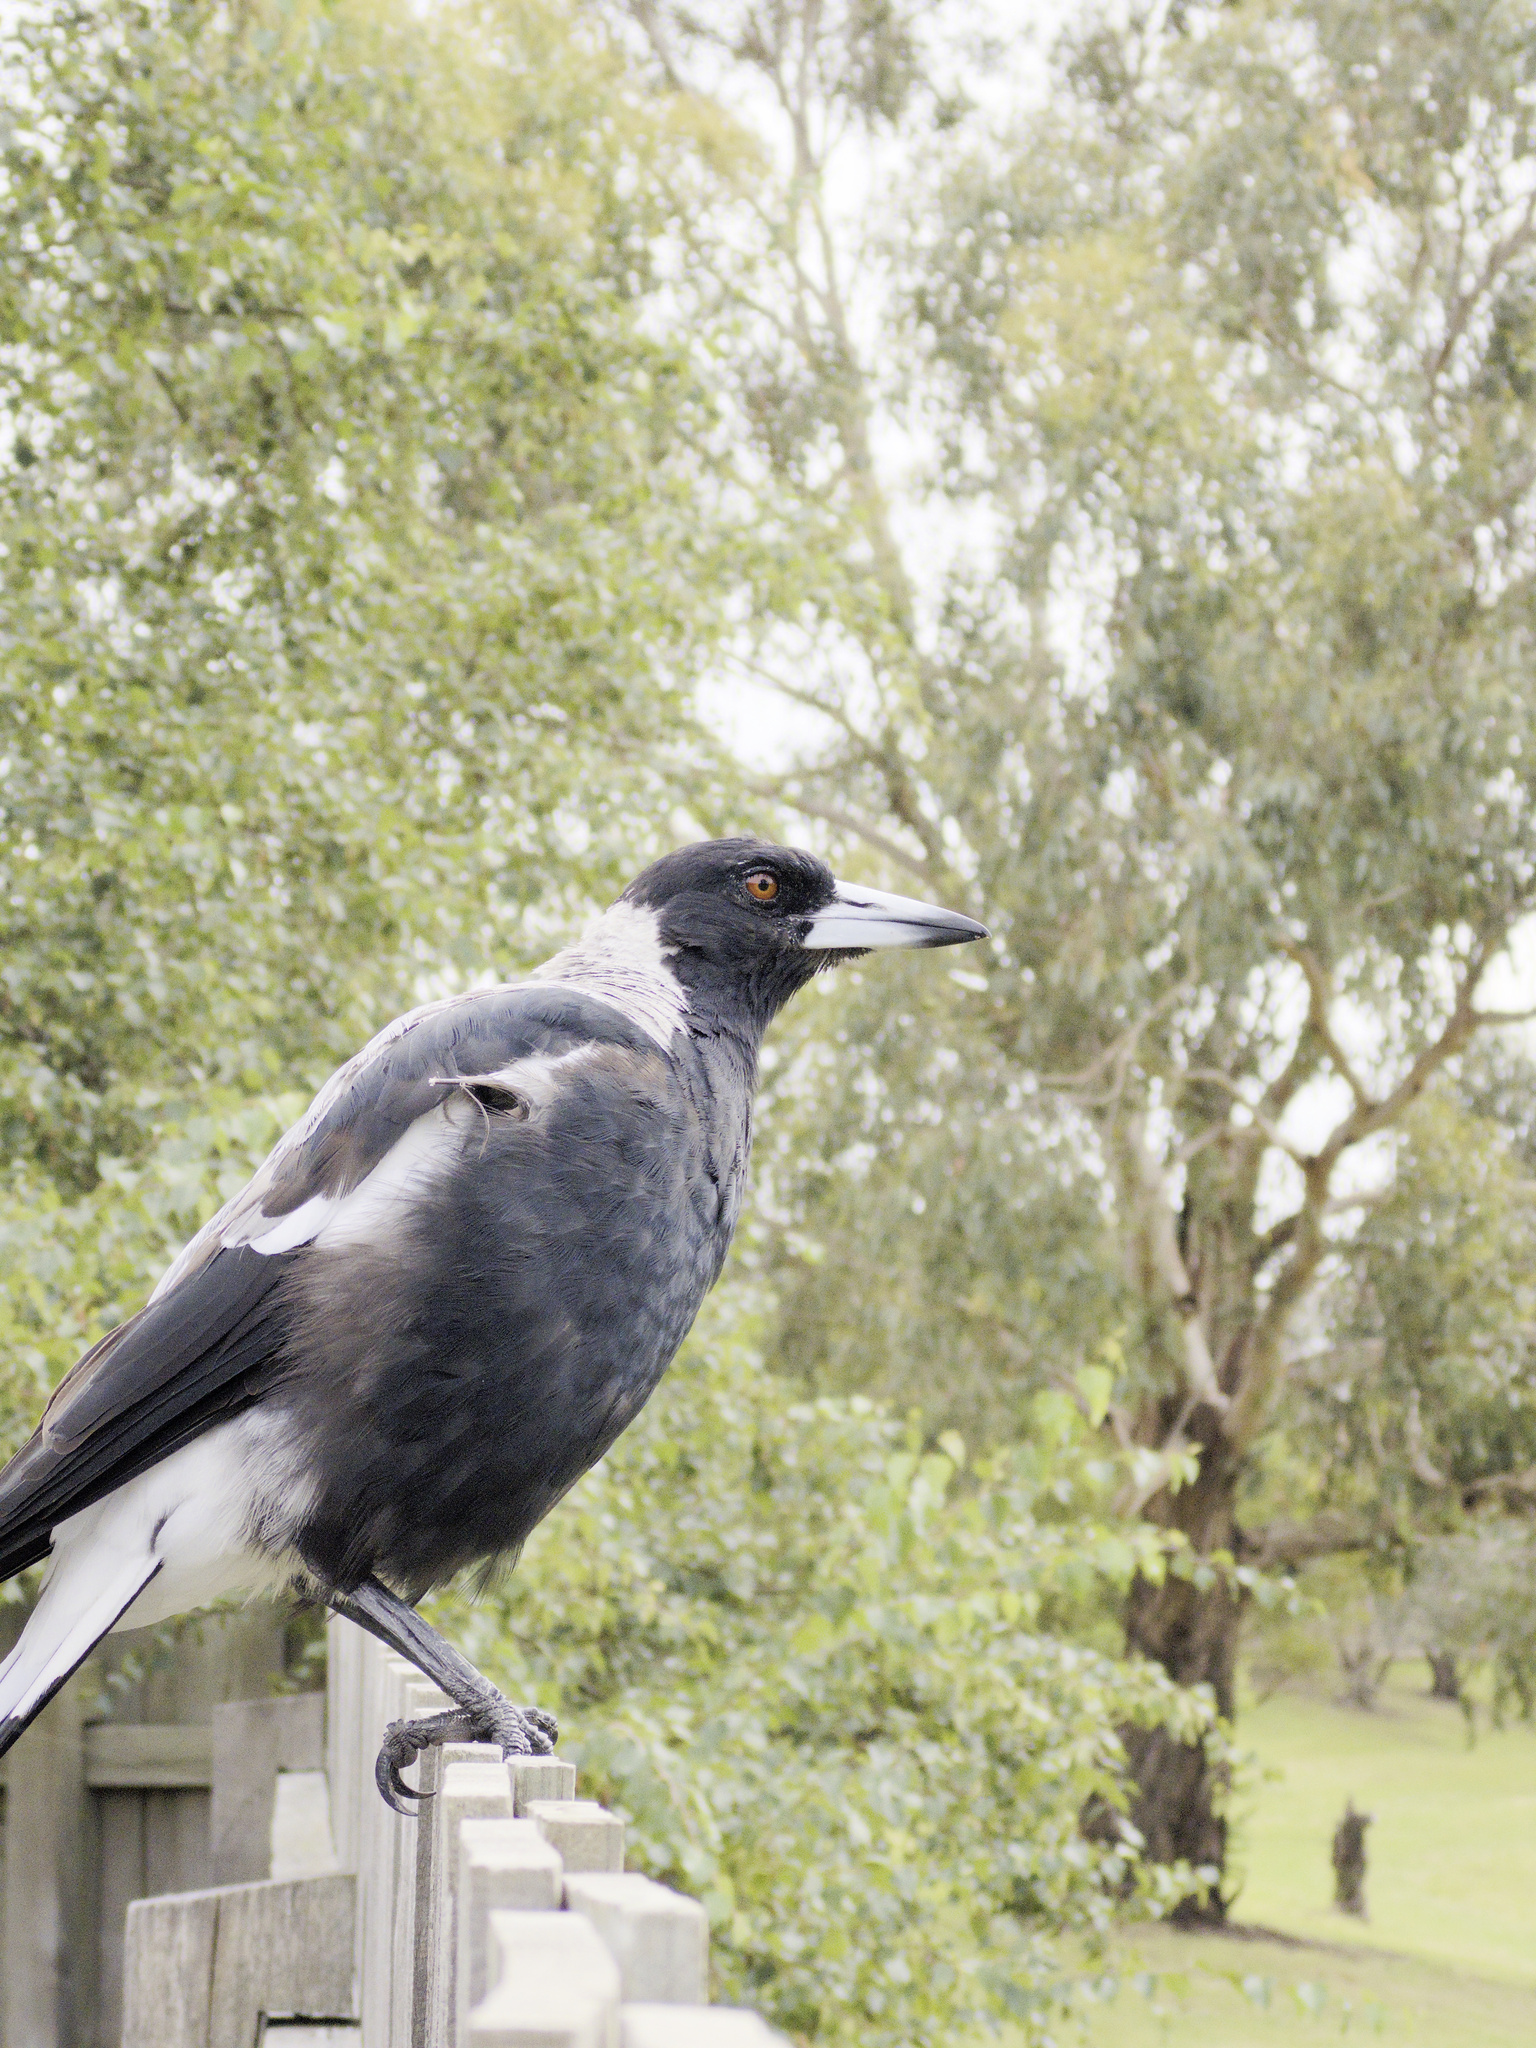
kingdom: Animalia
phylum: Chordata
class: Aves
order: Passeriformes
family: Cracticidae
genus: Gymnorhina
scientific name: Gymnorhina tibicen
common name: Australian magpie
